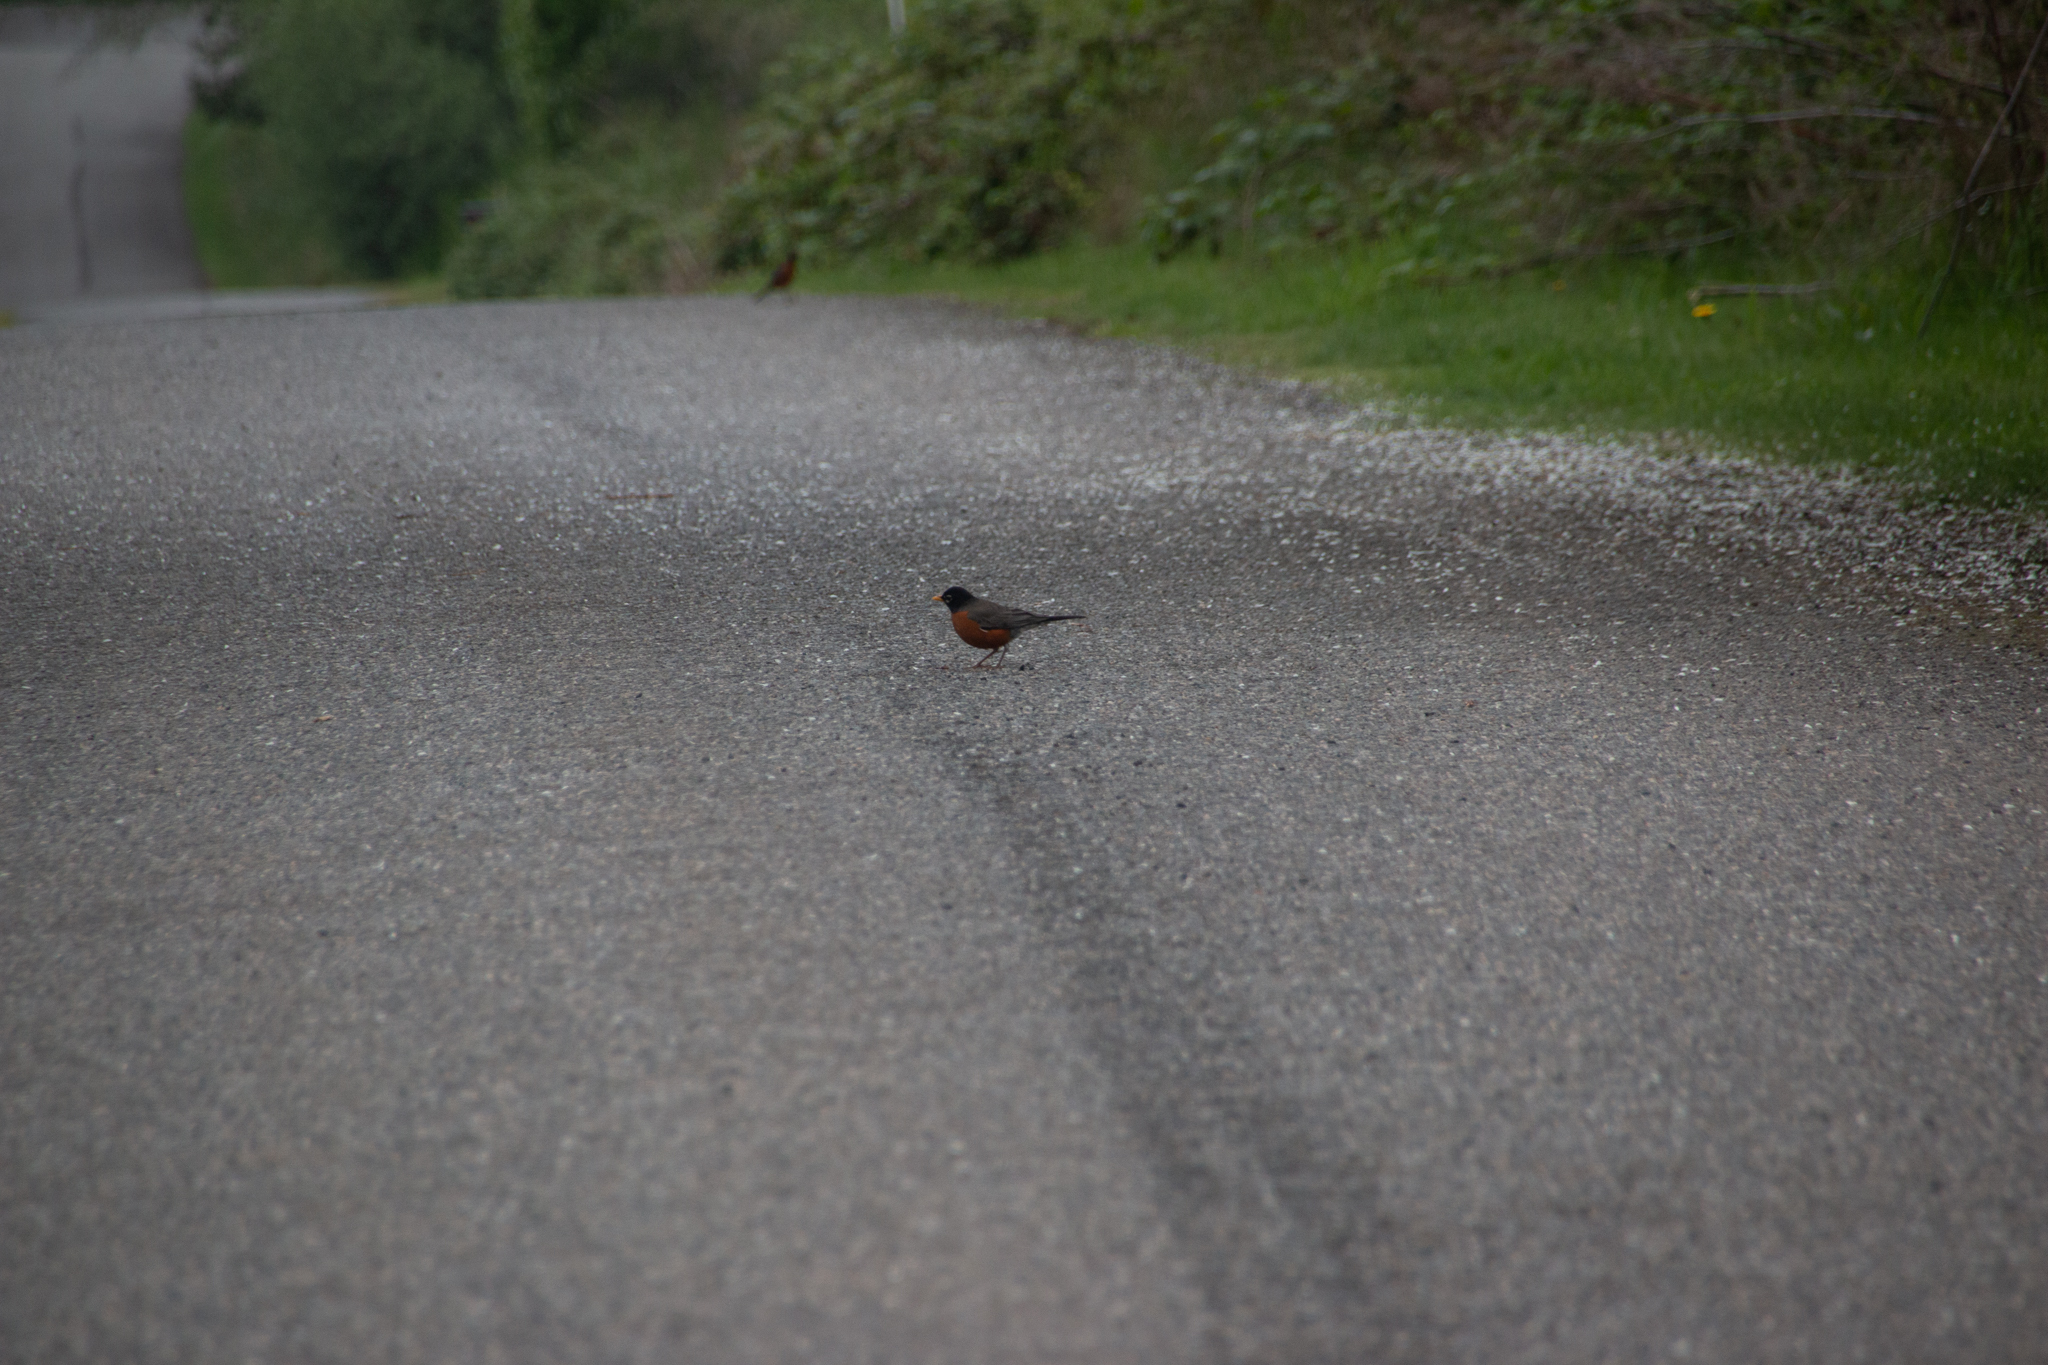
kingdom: Animalia
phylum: Chordata
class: Aves
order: Passeriformes
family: Turdidae
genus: Turdus
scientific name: Turdus migratorius
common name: American robin
